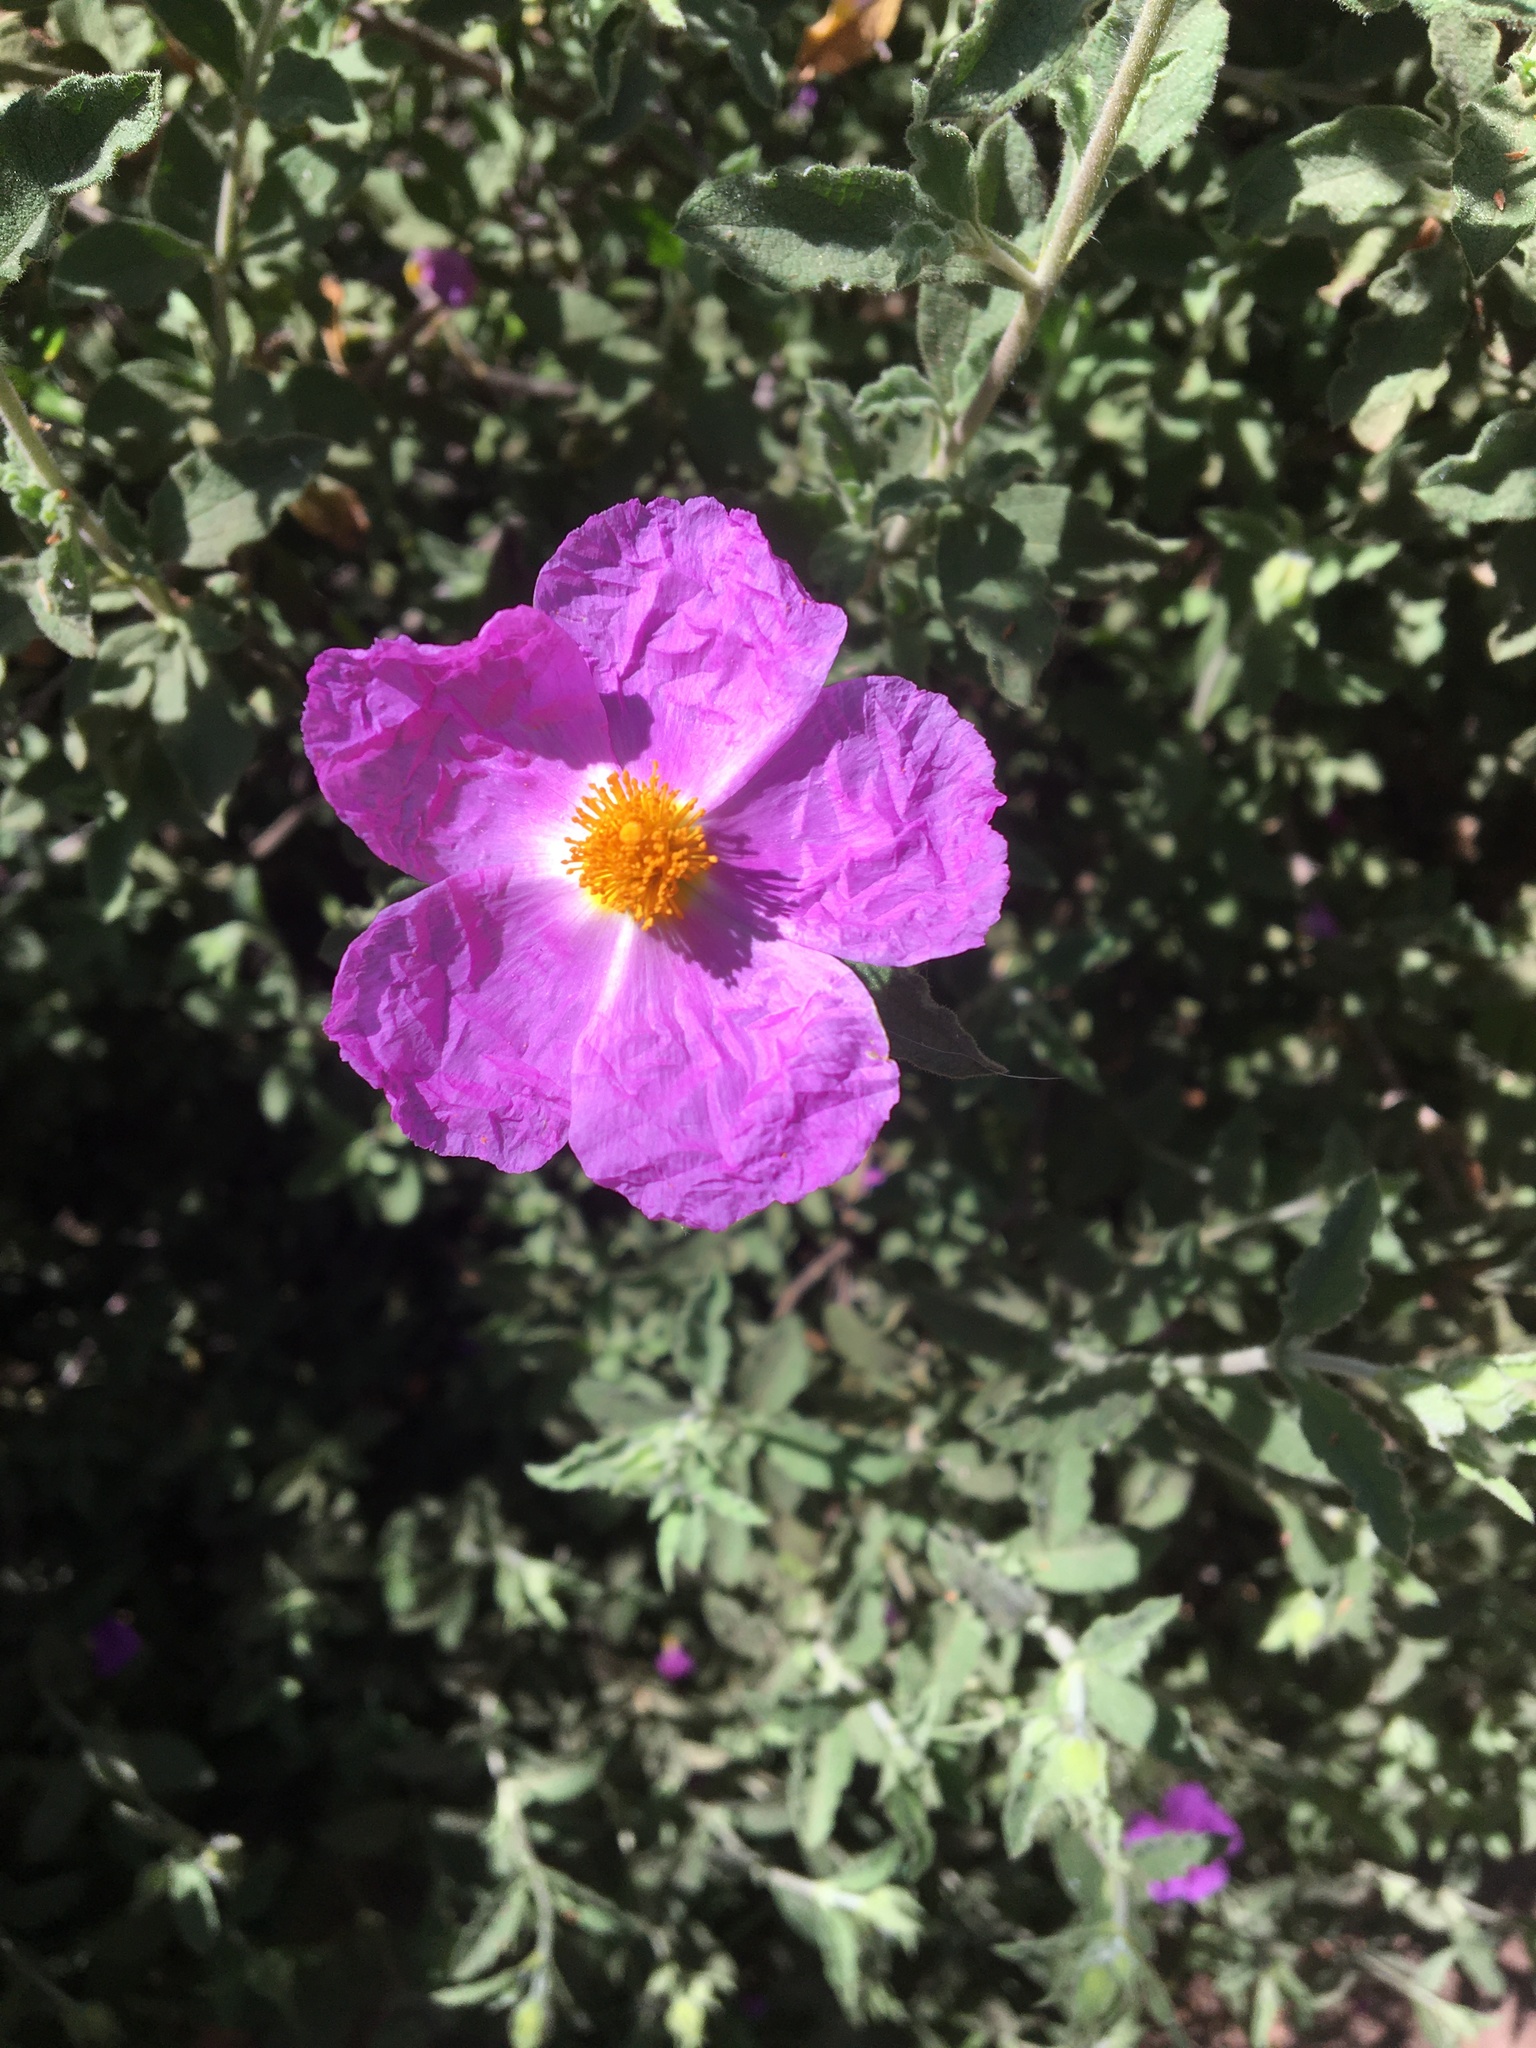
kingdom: Plantae
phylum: Tracheophyta
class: Magnoliopsida
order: Malvales
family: Cistaceae
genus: Cistus
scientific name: Cistus creticus
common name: Cretan rockrose
